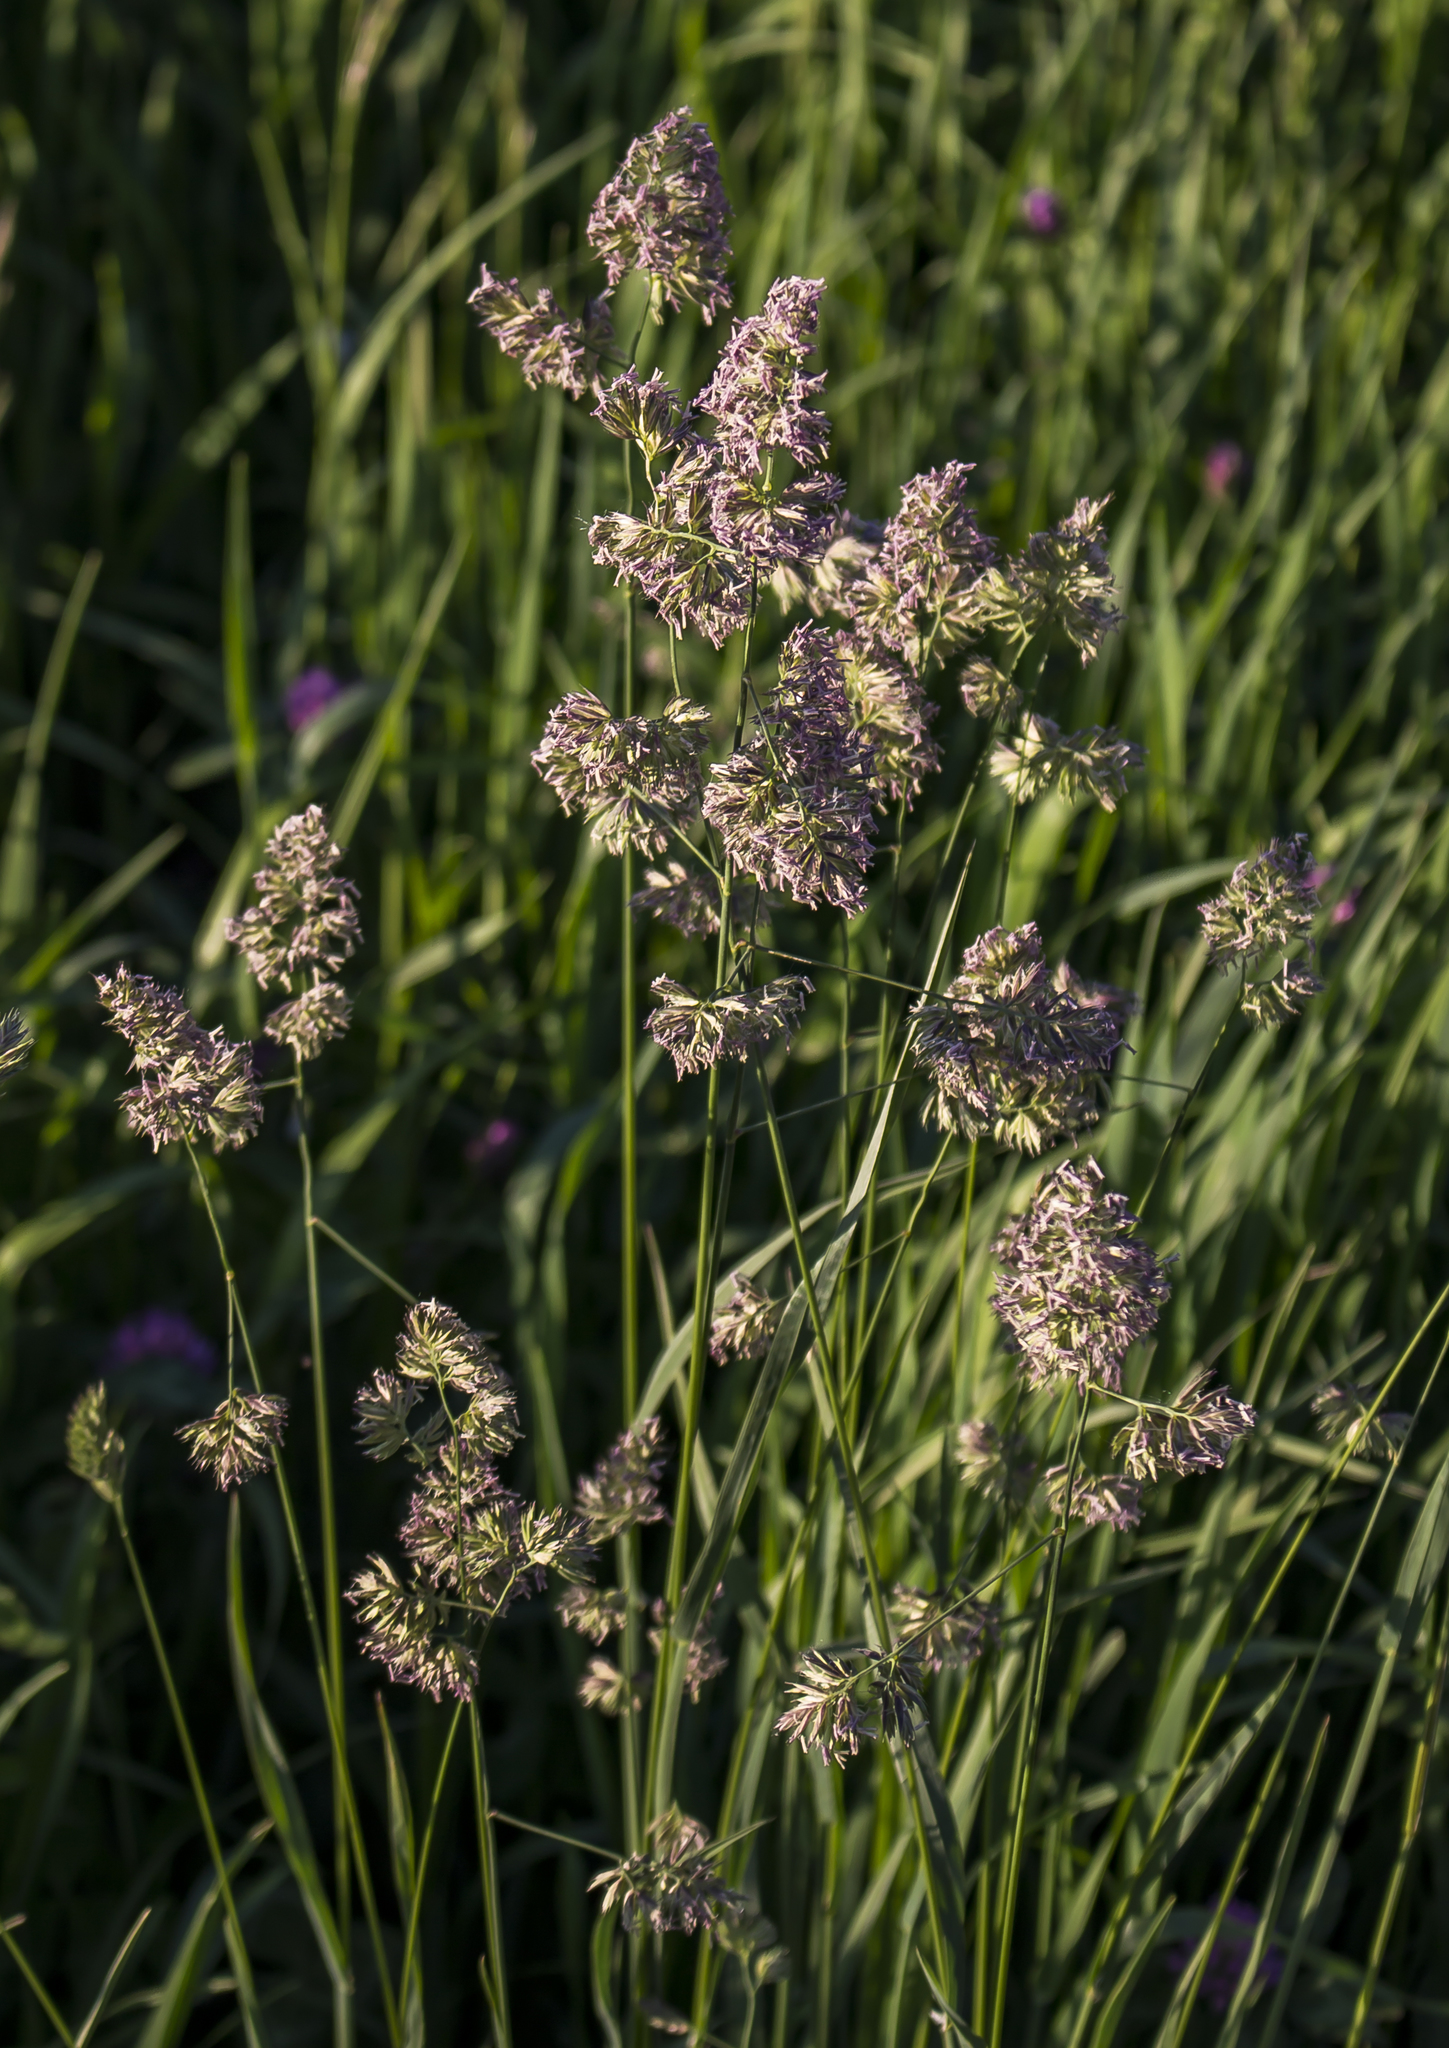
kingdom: Plantae
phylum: Tracheophyta
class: Liliopsida
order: Poales
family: Poaceae
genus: Dactylis
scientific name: Dactylis glomerata
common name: Orchardgrass
